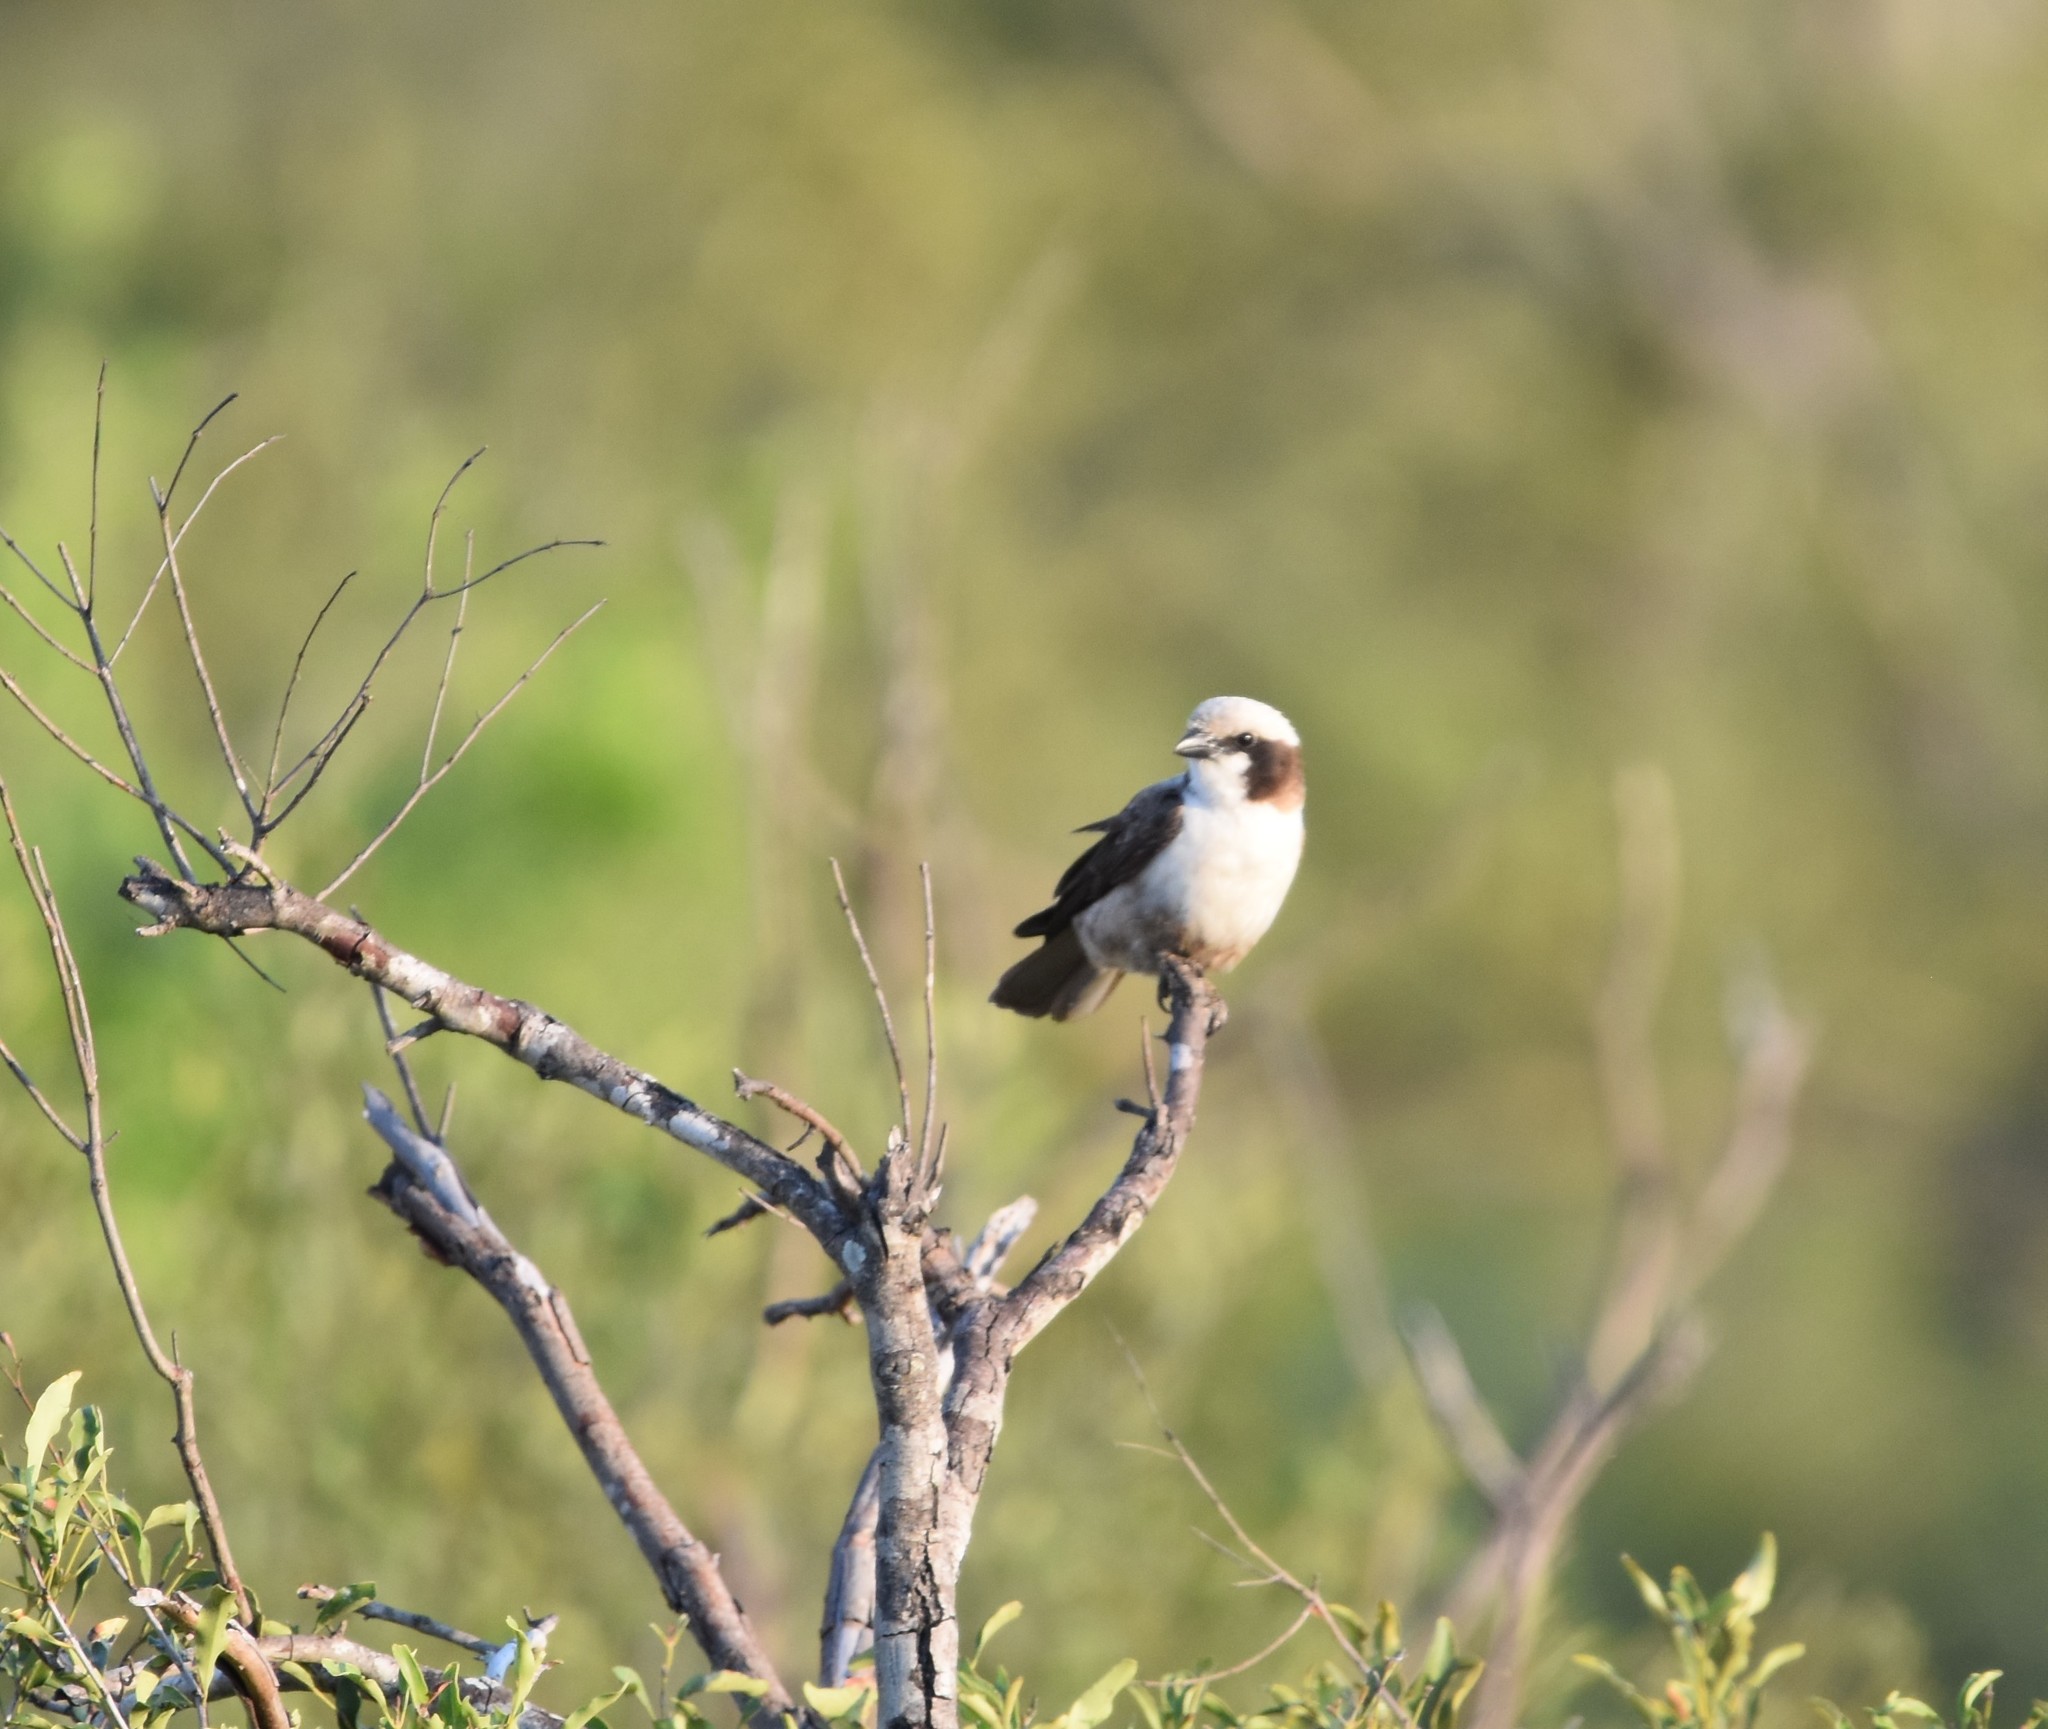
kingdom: Animalia
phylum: Chordata
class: Aves
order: Passeriformes
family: Laniidae
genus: Eurocephalus
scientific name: Eurocephalus anguitimens
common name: Southern white-crowned shrike
